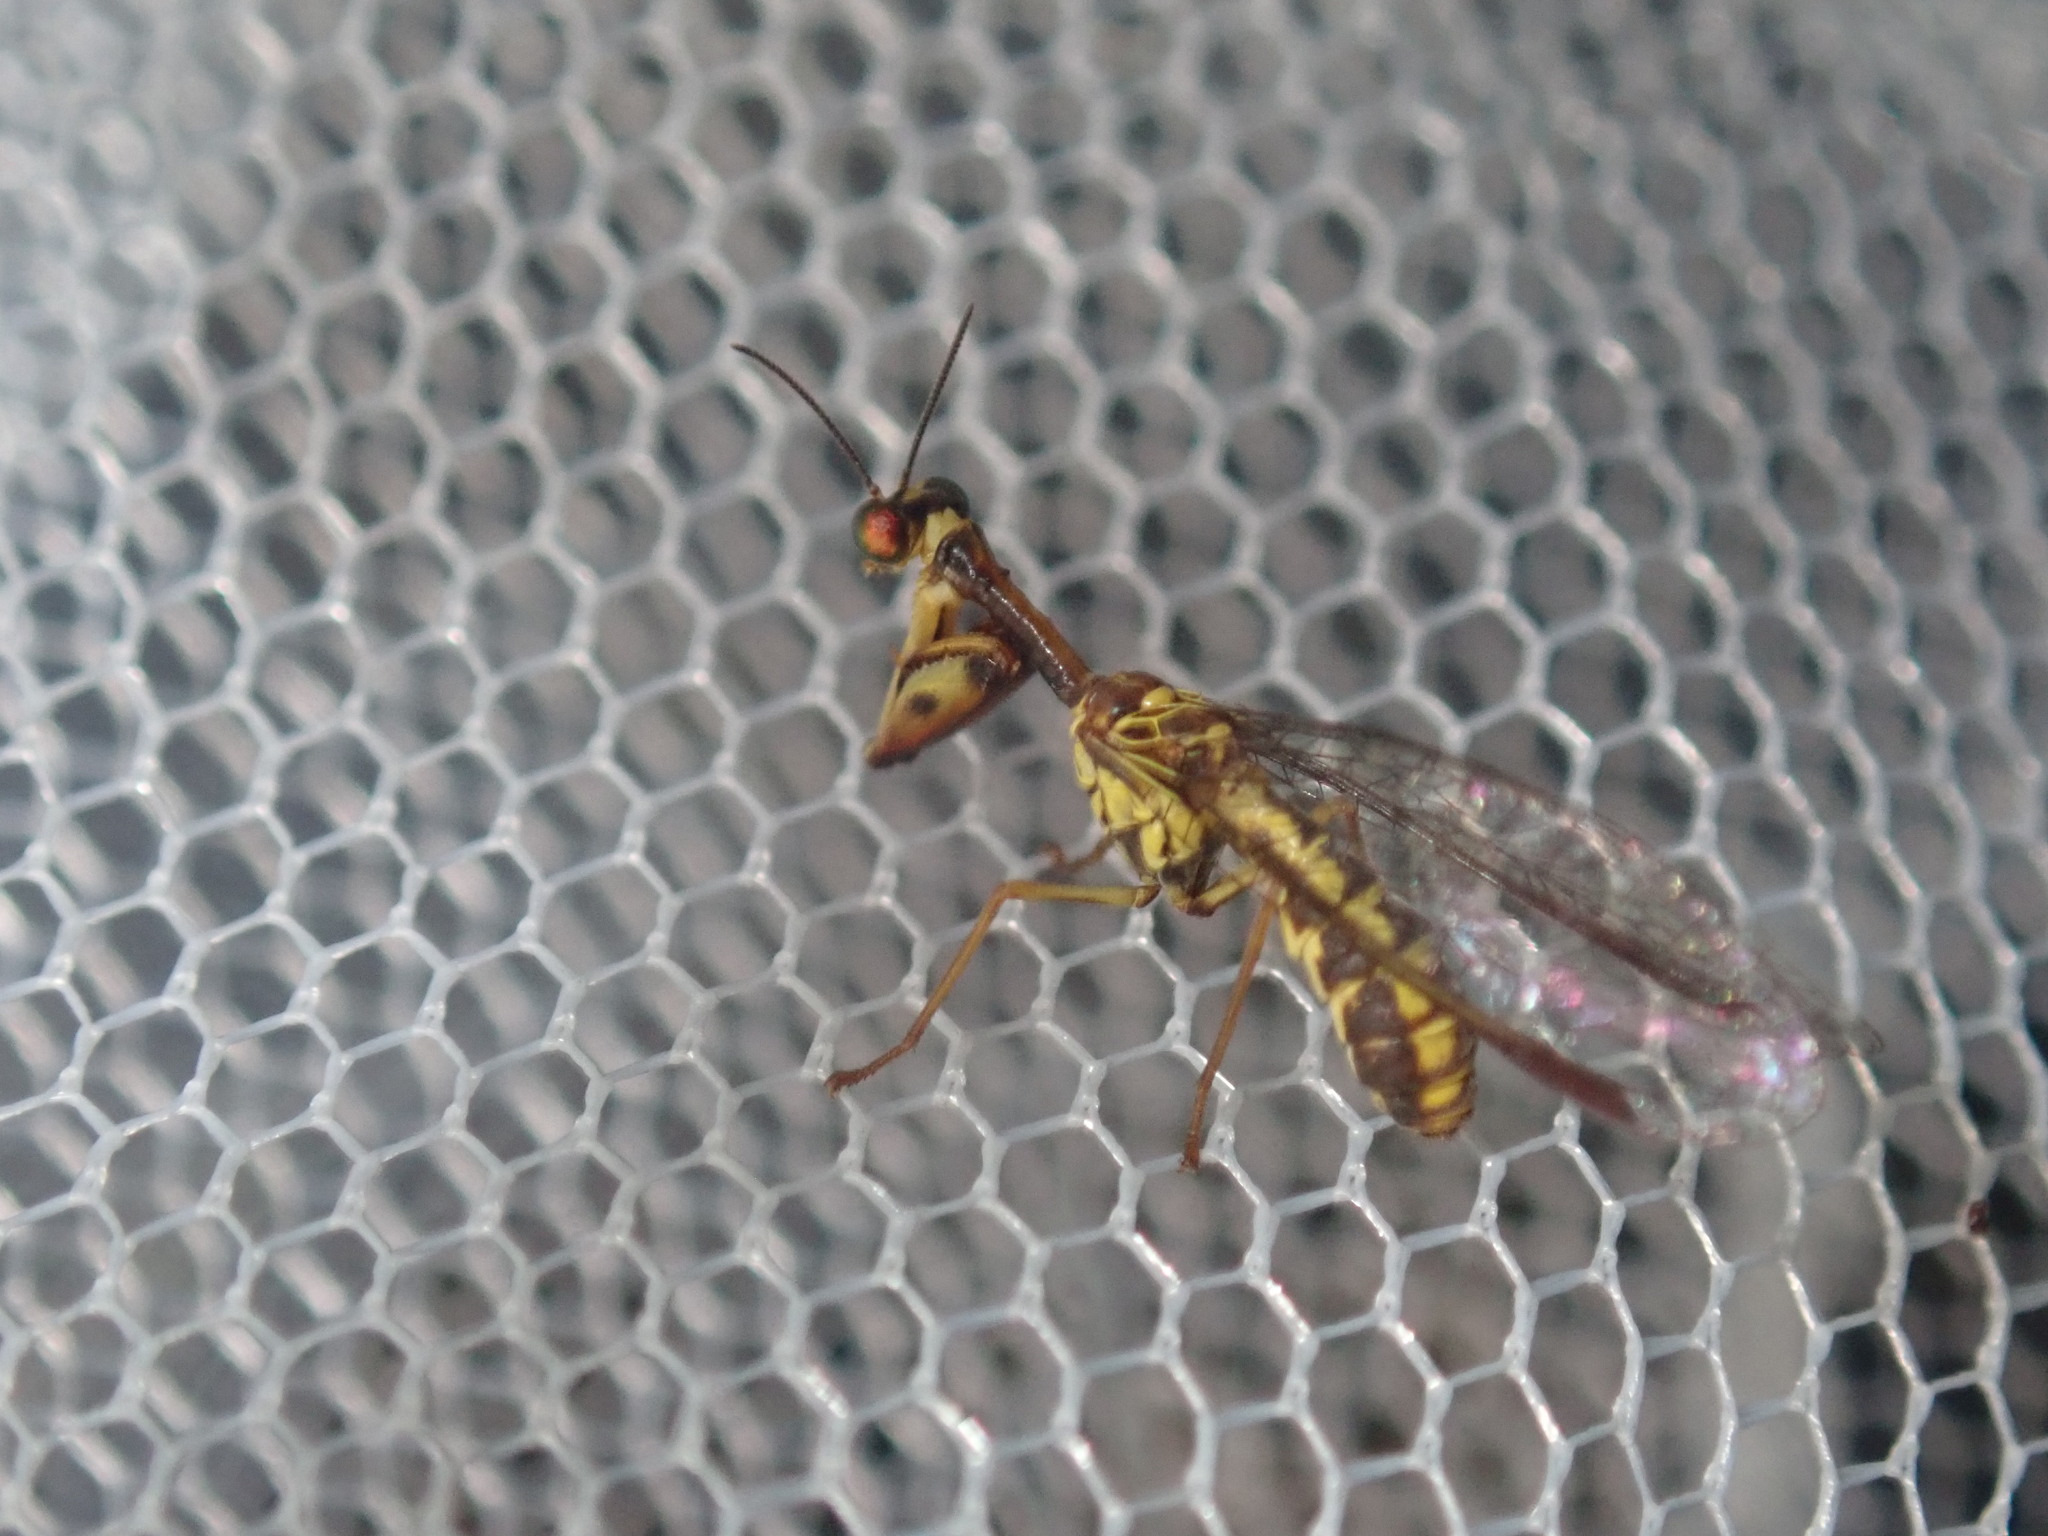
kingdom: Animalia
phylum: Arthropoda
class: Insecta
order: Neuroptera
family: Mantispidae
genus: Spaminta
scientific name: Spaminta minjerribae
